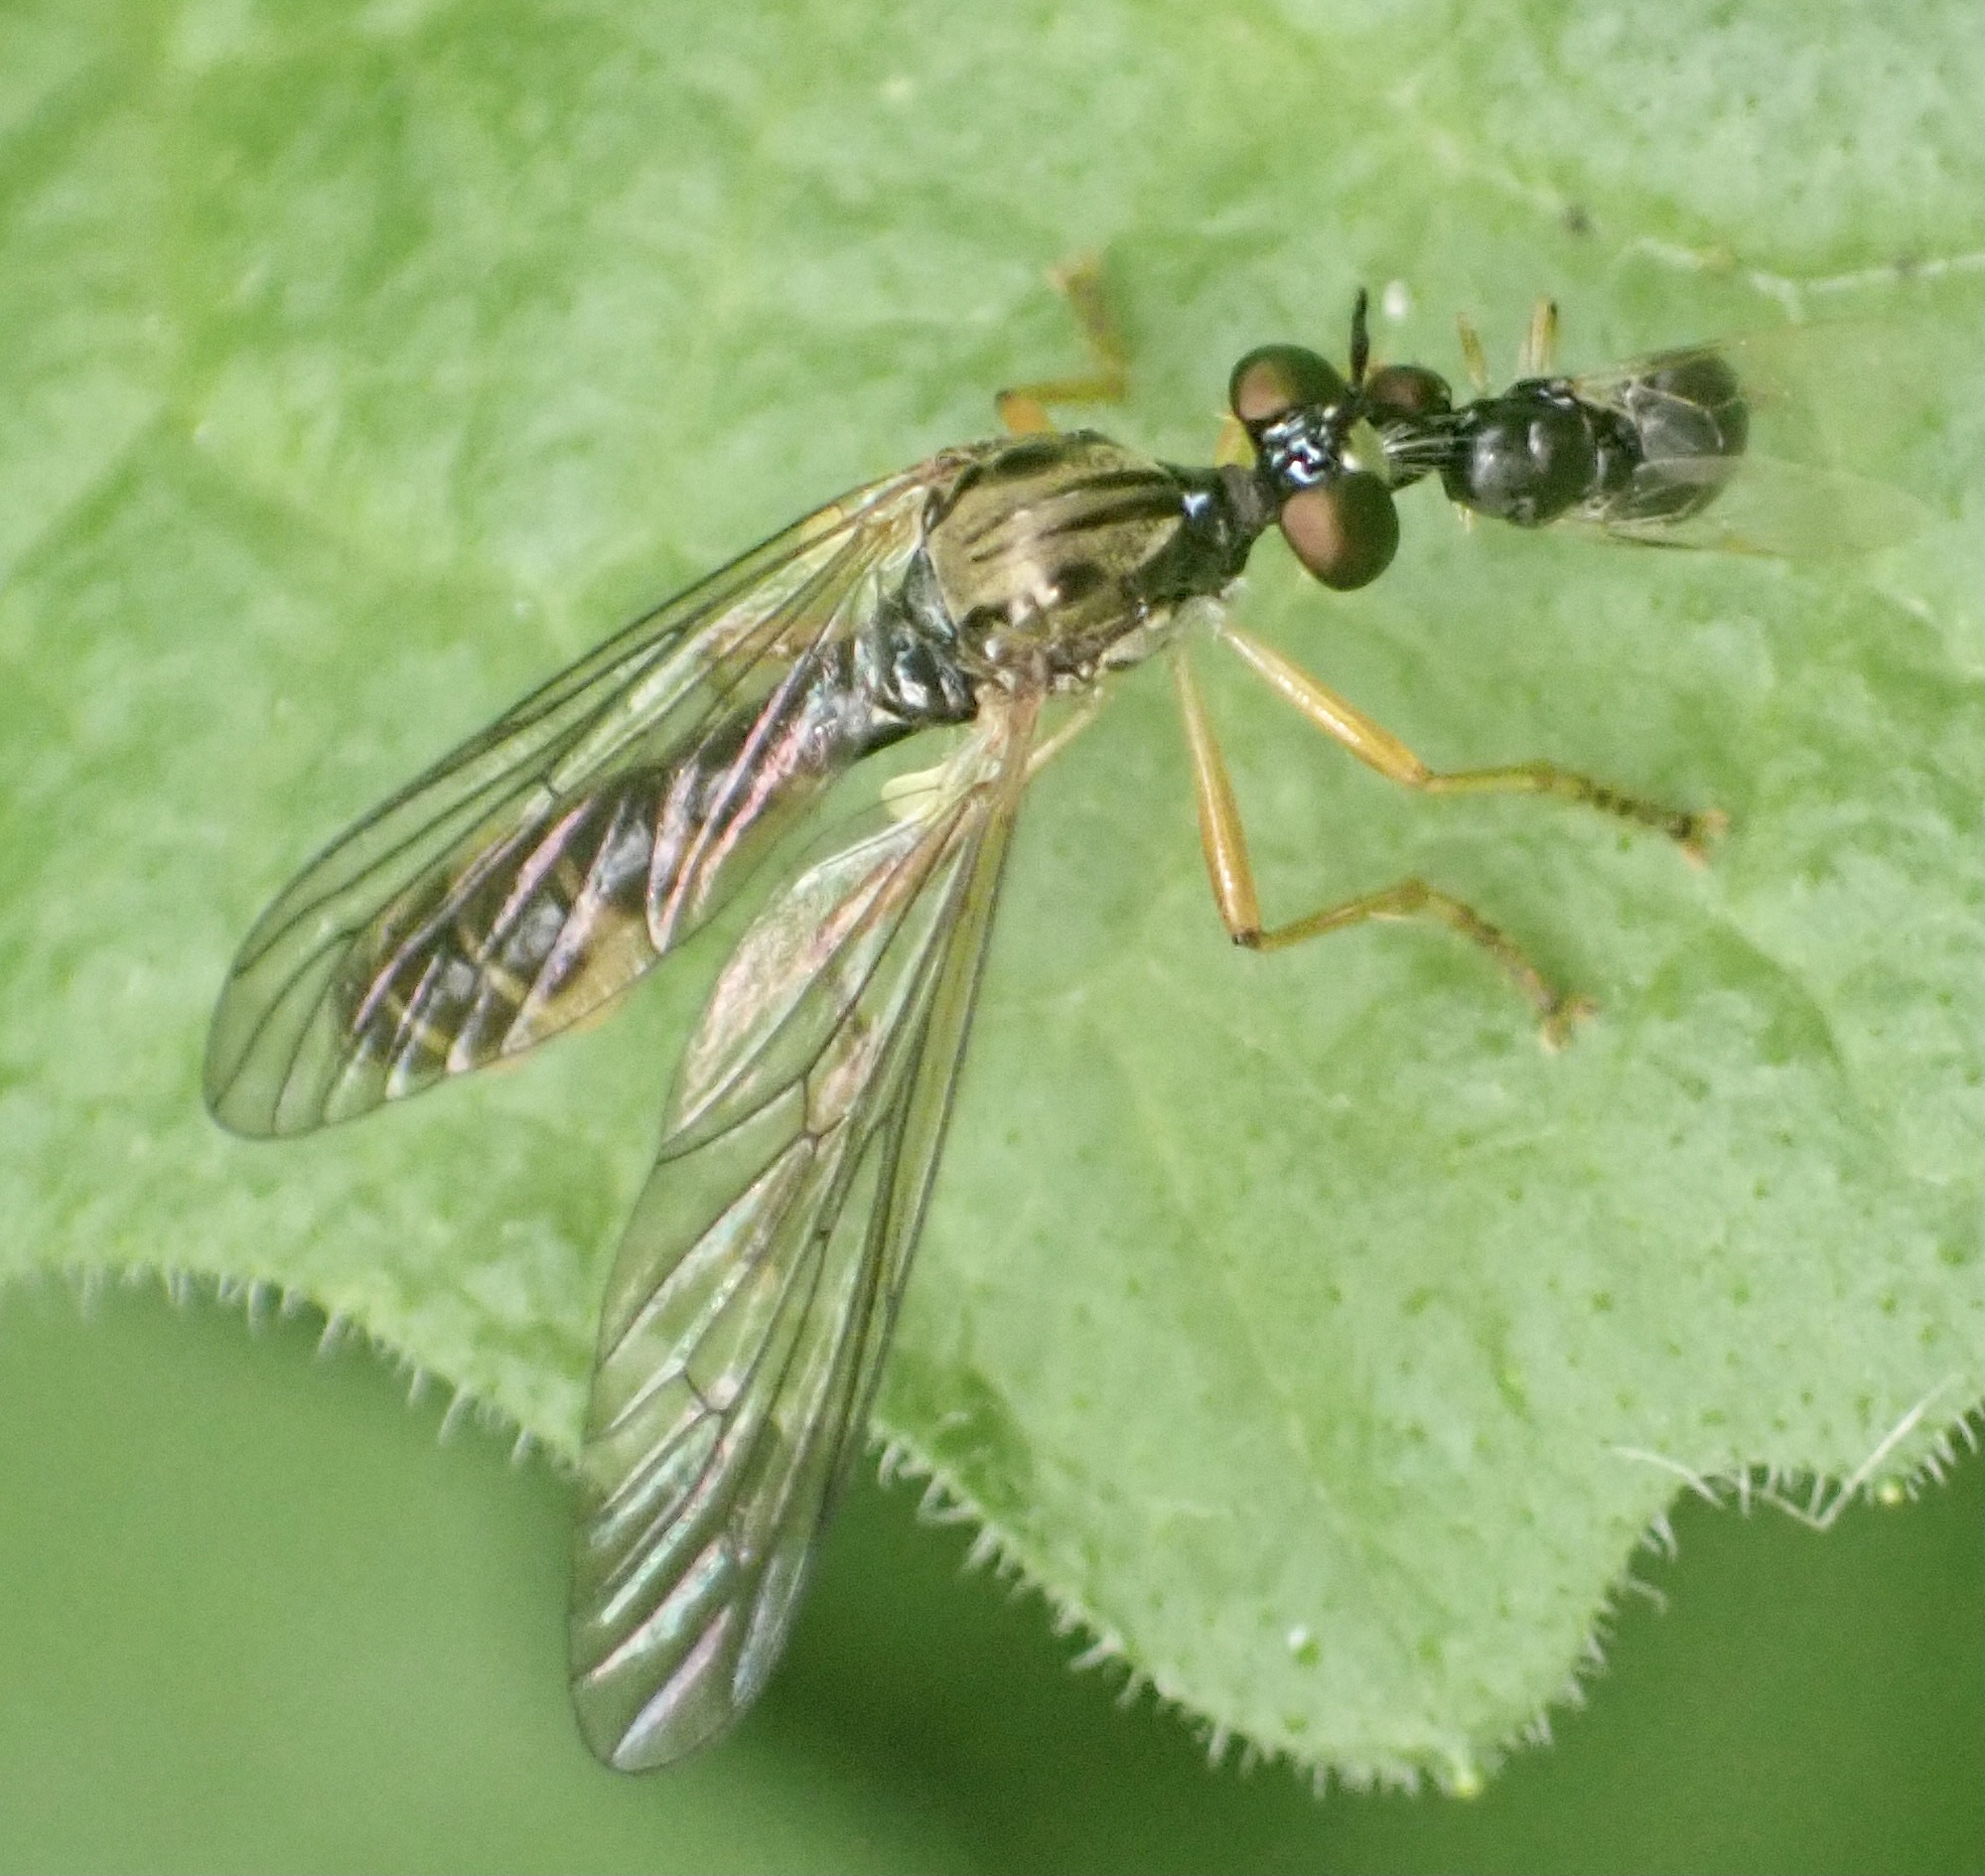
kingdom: Animalia
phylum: Arthropoda
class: Insecta
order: Diptera
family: Asilidae
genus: Dioctria
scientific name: Dioctria linearis
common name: Small yellow-legged robberfly
